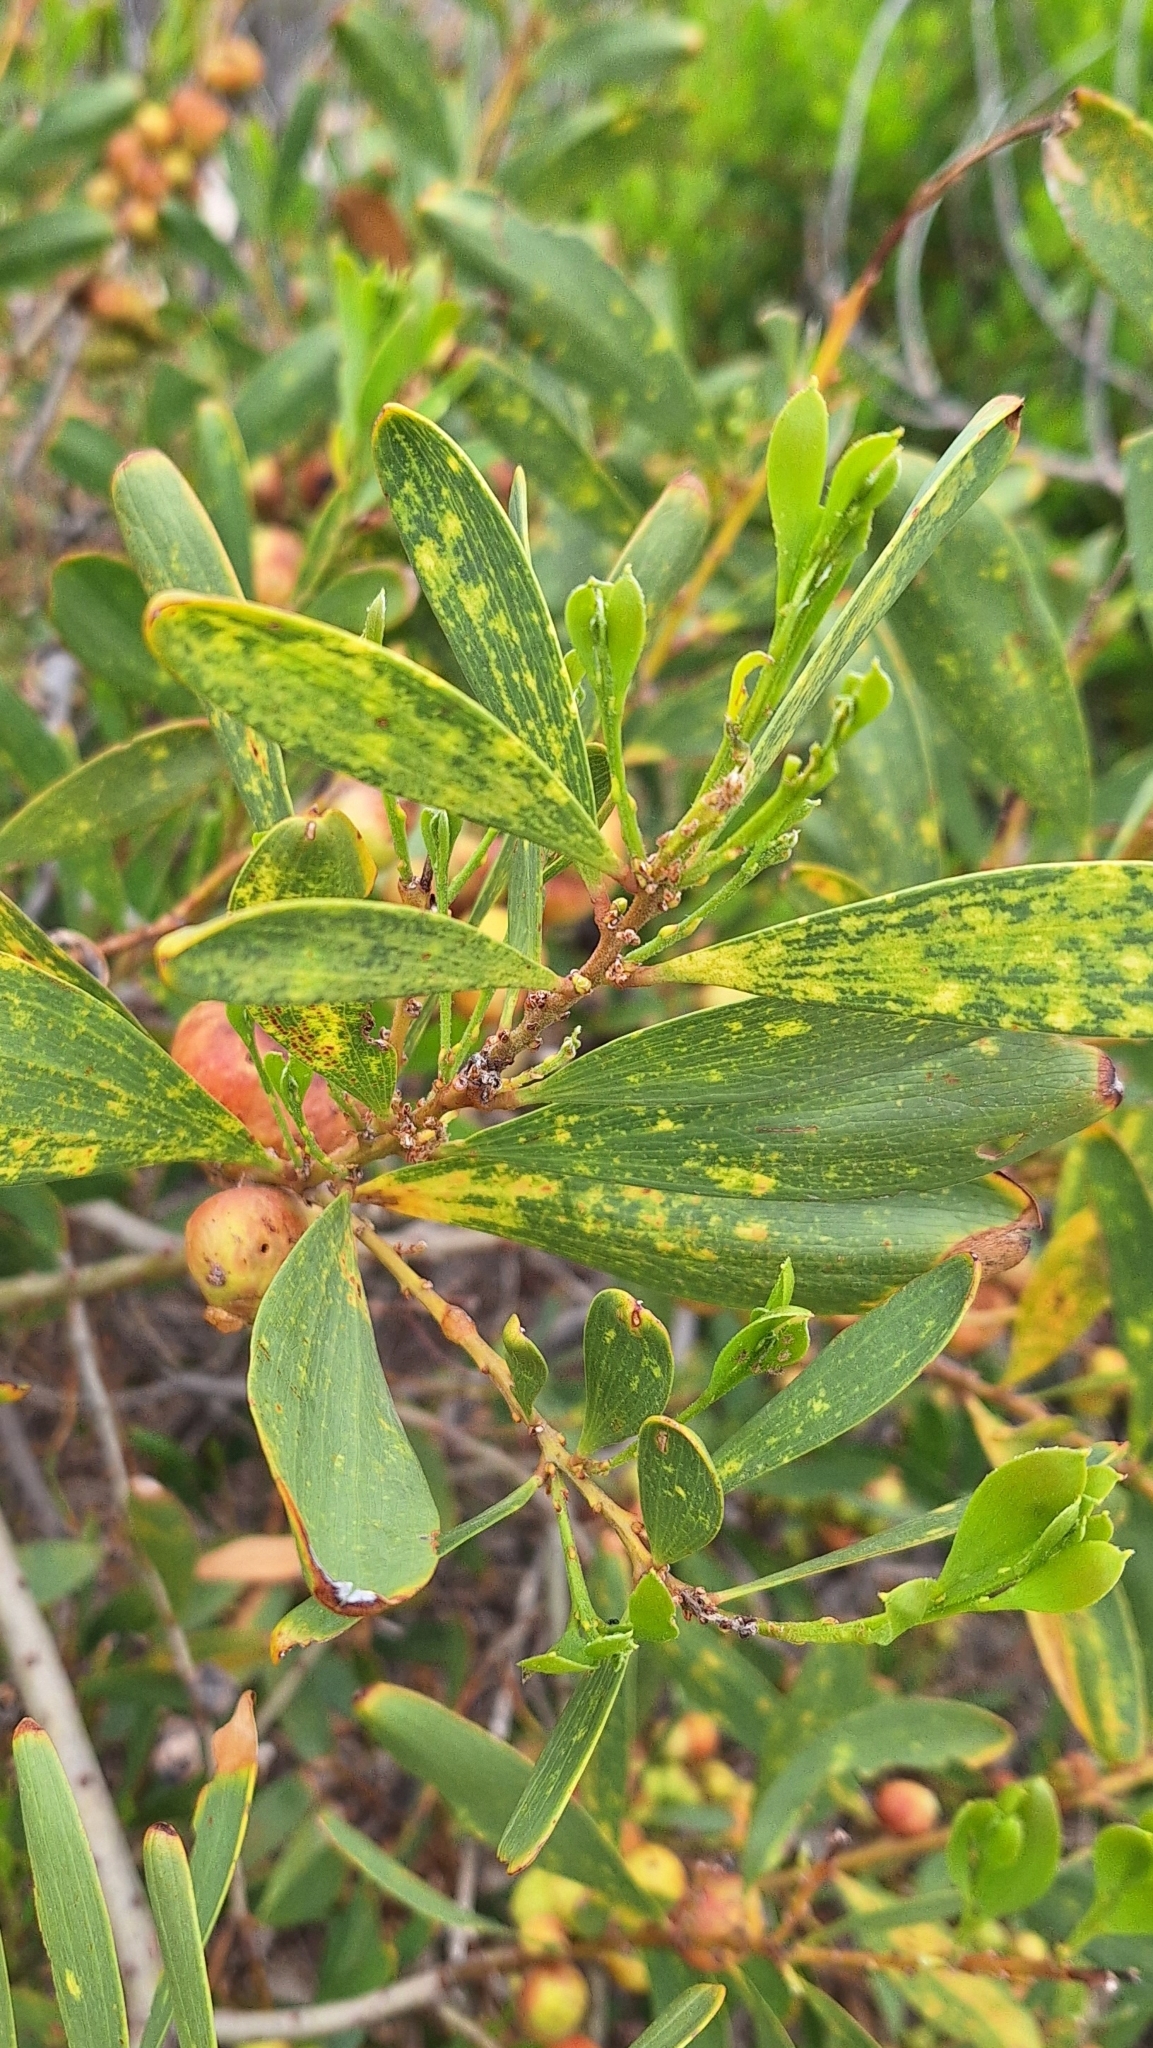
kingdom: Plantae
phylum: Tracheophyta
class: Magnoliopsida
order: Fabales
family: Fabaceae
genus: Acacia
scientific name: Acacia longifolia
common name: Sydney golden wattle
